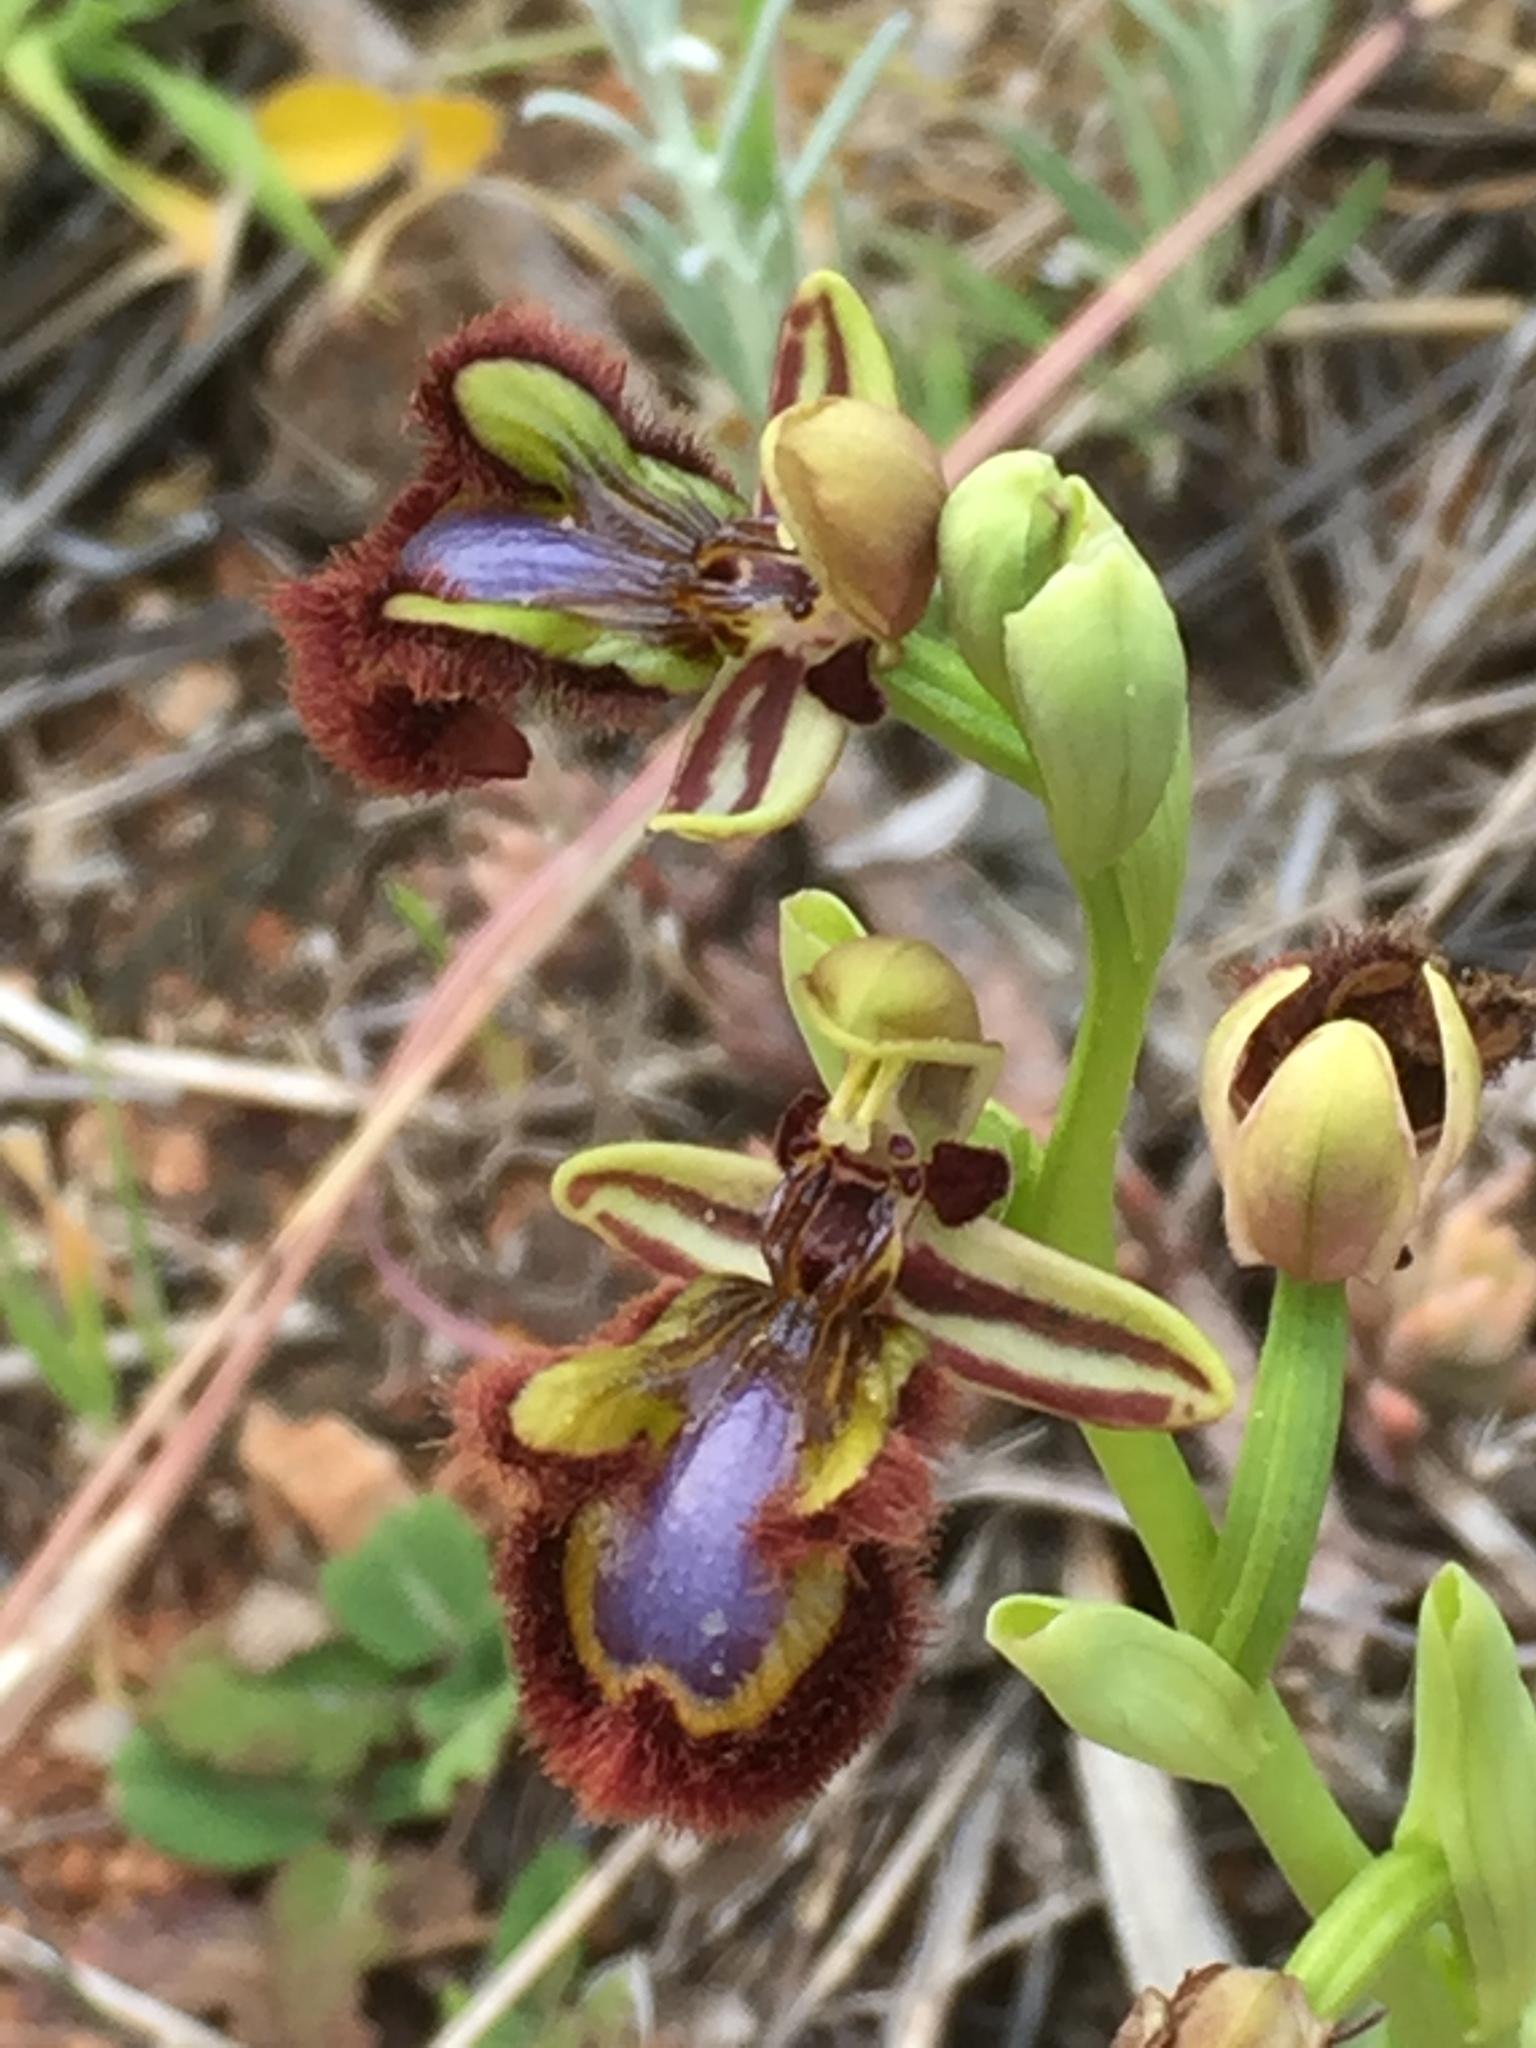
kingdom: Plantae
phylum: Tracheophyta
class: Liliopsida
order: Asparagales
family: Orchidaceae
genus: Ophrys
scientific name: Ophrys speculum
